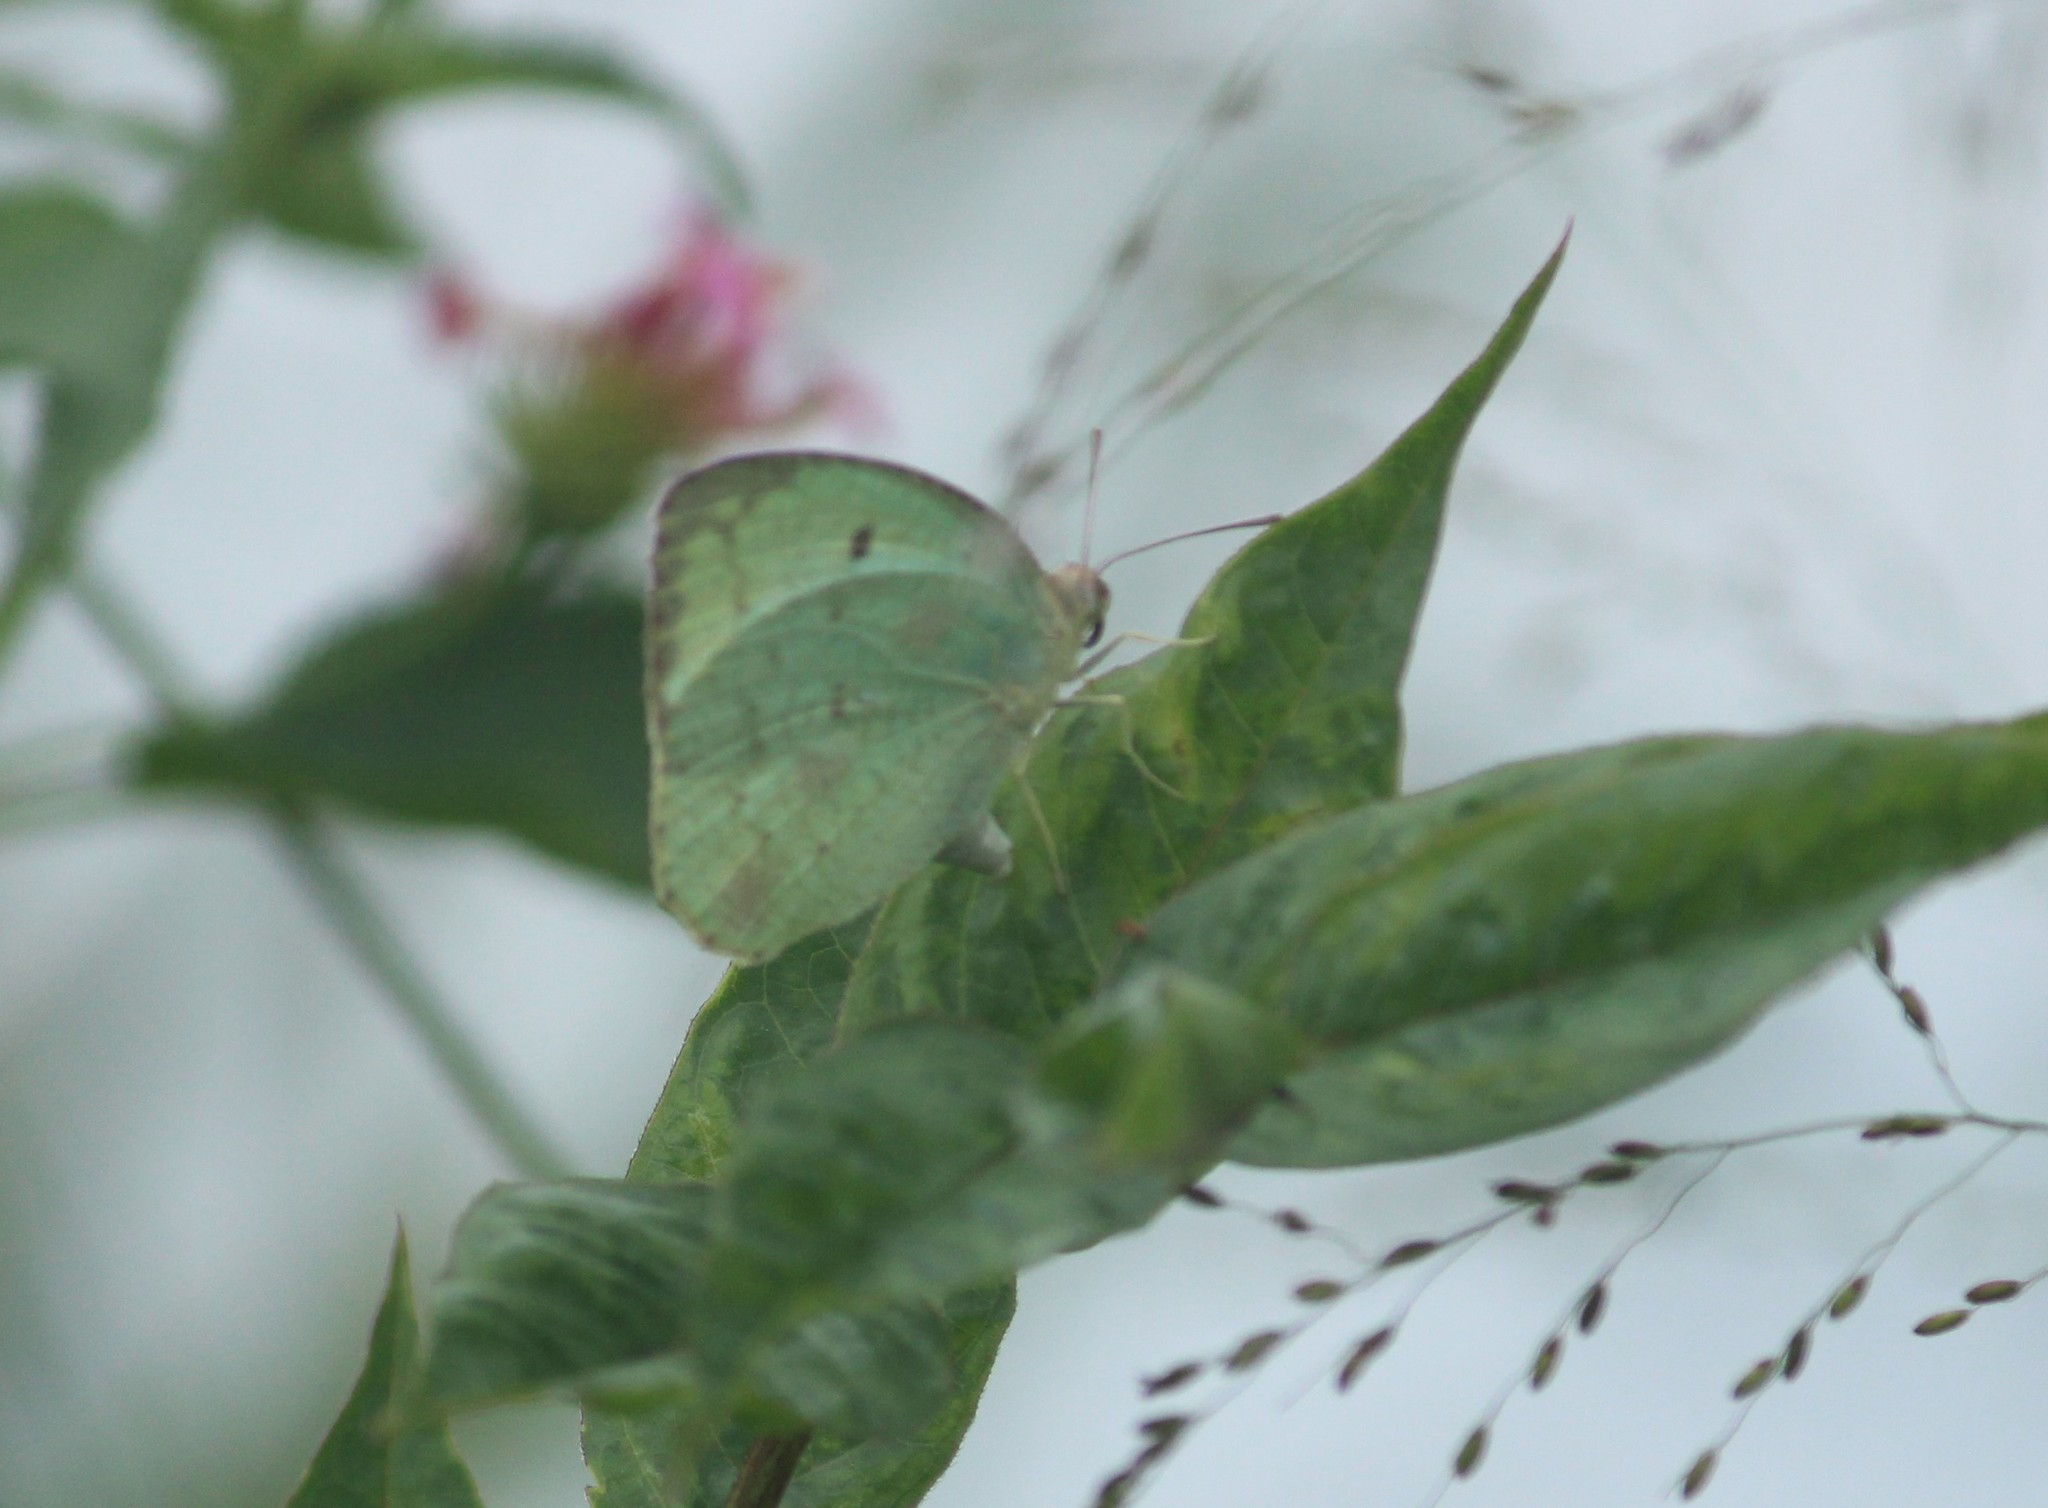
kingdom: Animalia
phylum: Arthropoda
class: Insecta
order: Lepidoptera
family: Pieridae
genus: Catopsilia
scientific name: Catopsilia pyranthe
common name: Mottled emigrant
